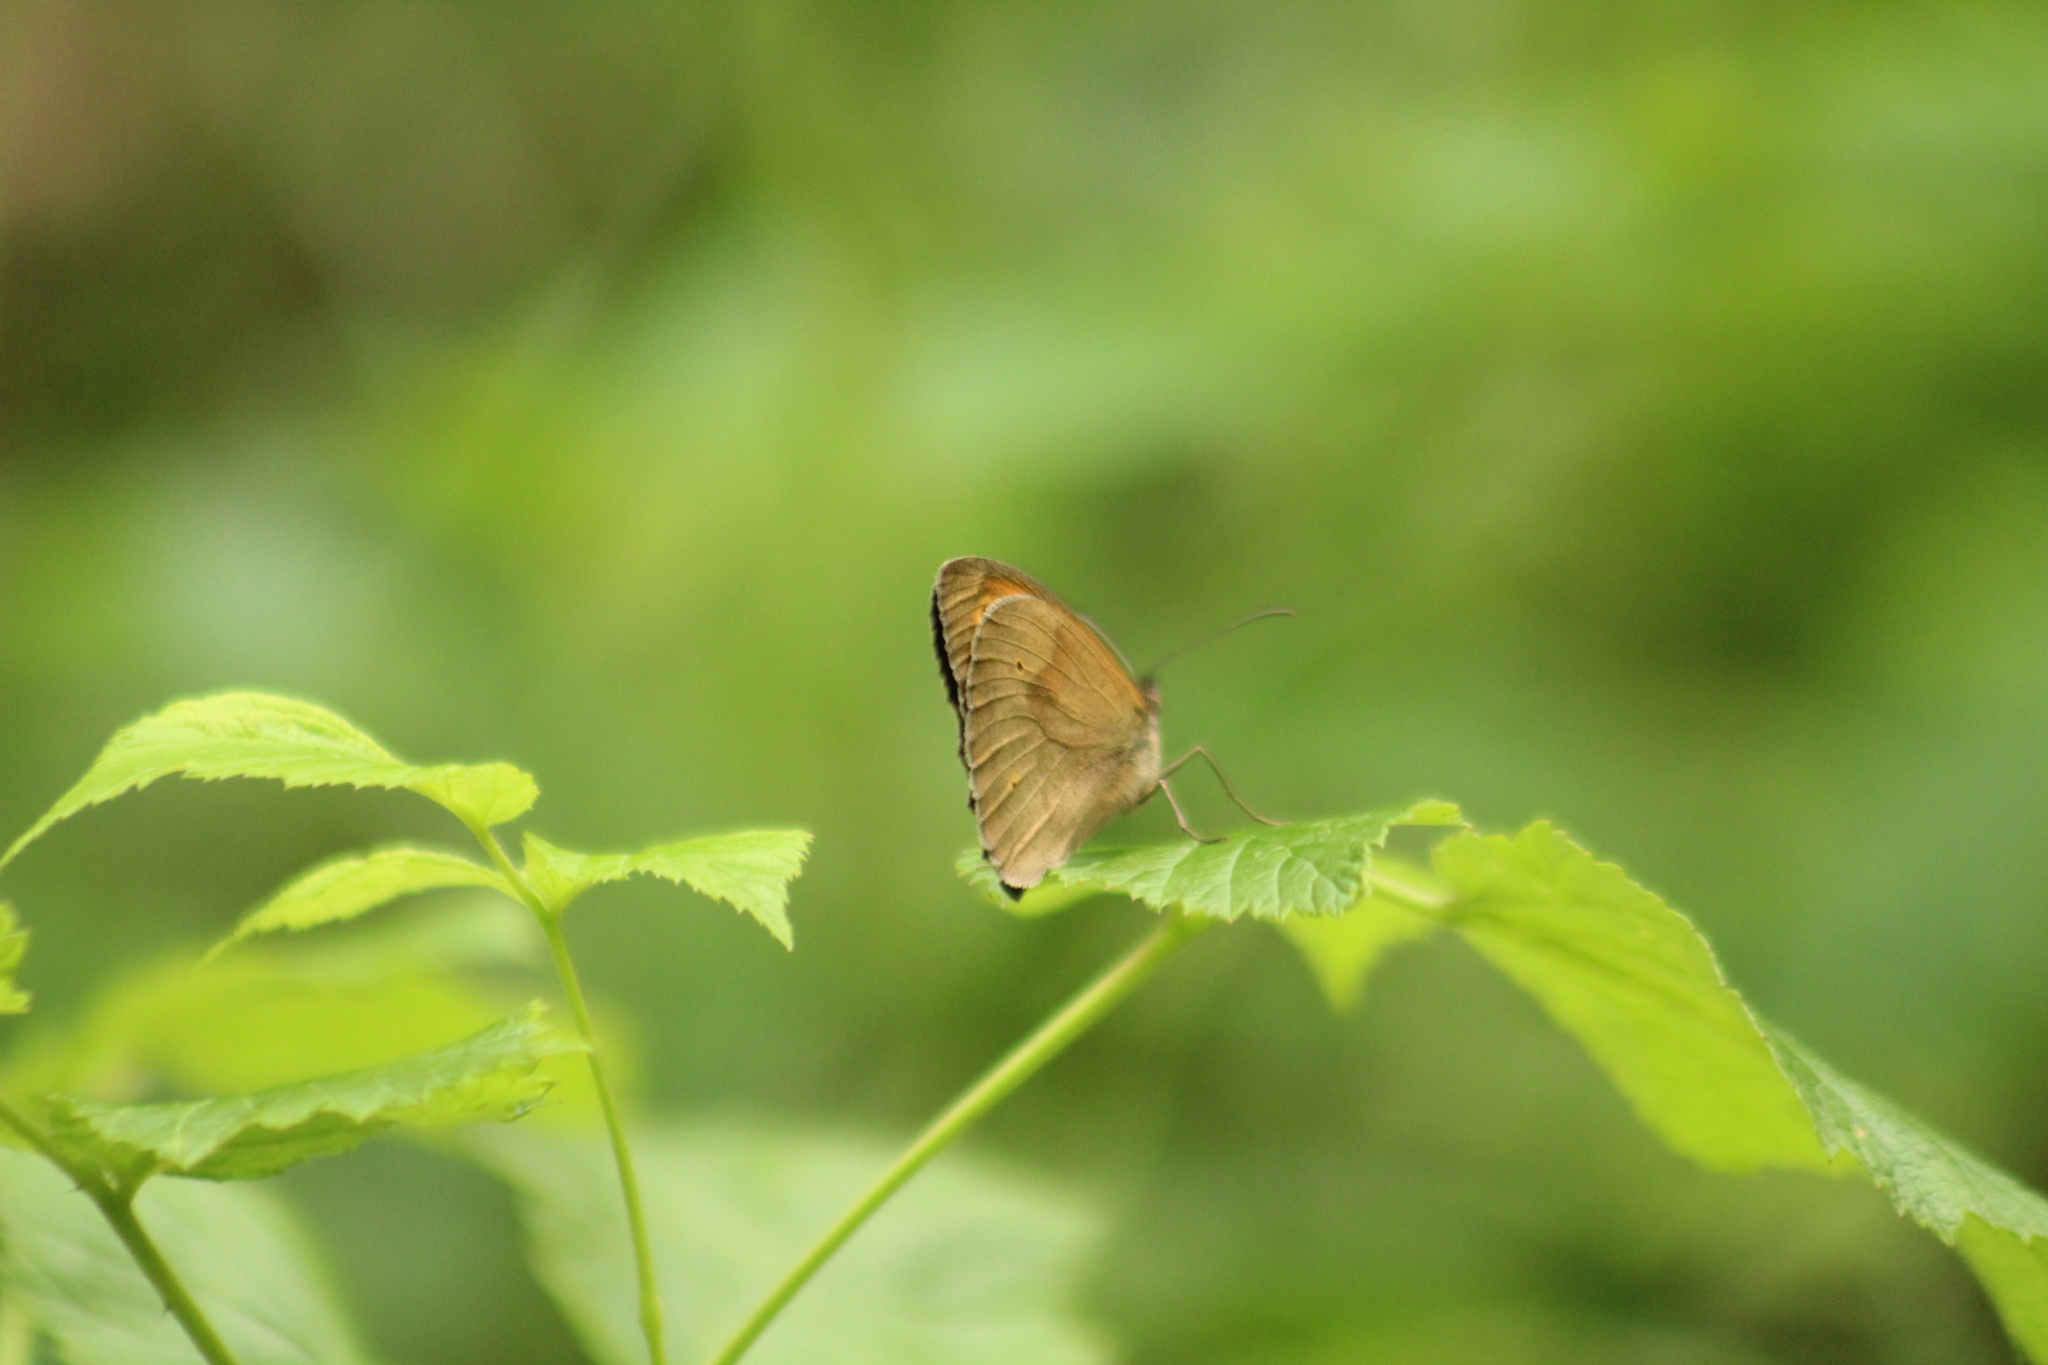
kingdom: Animalia
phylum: Arthropoda
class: Insecta
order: Lepidoptera
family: Nymphalidae
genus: Maniola
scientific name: Maniola jurtina
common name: Meadow brown
